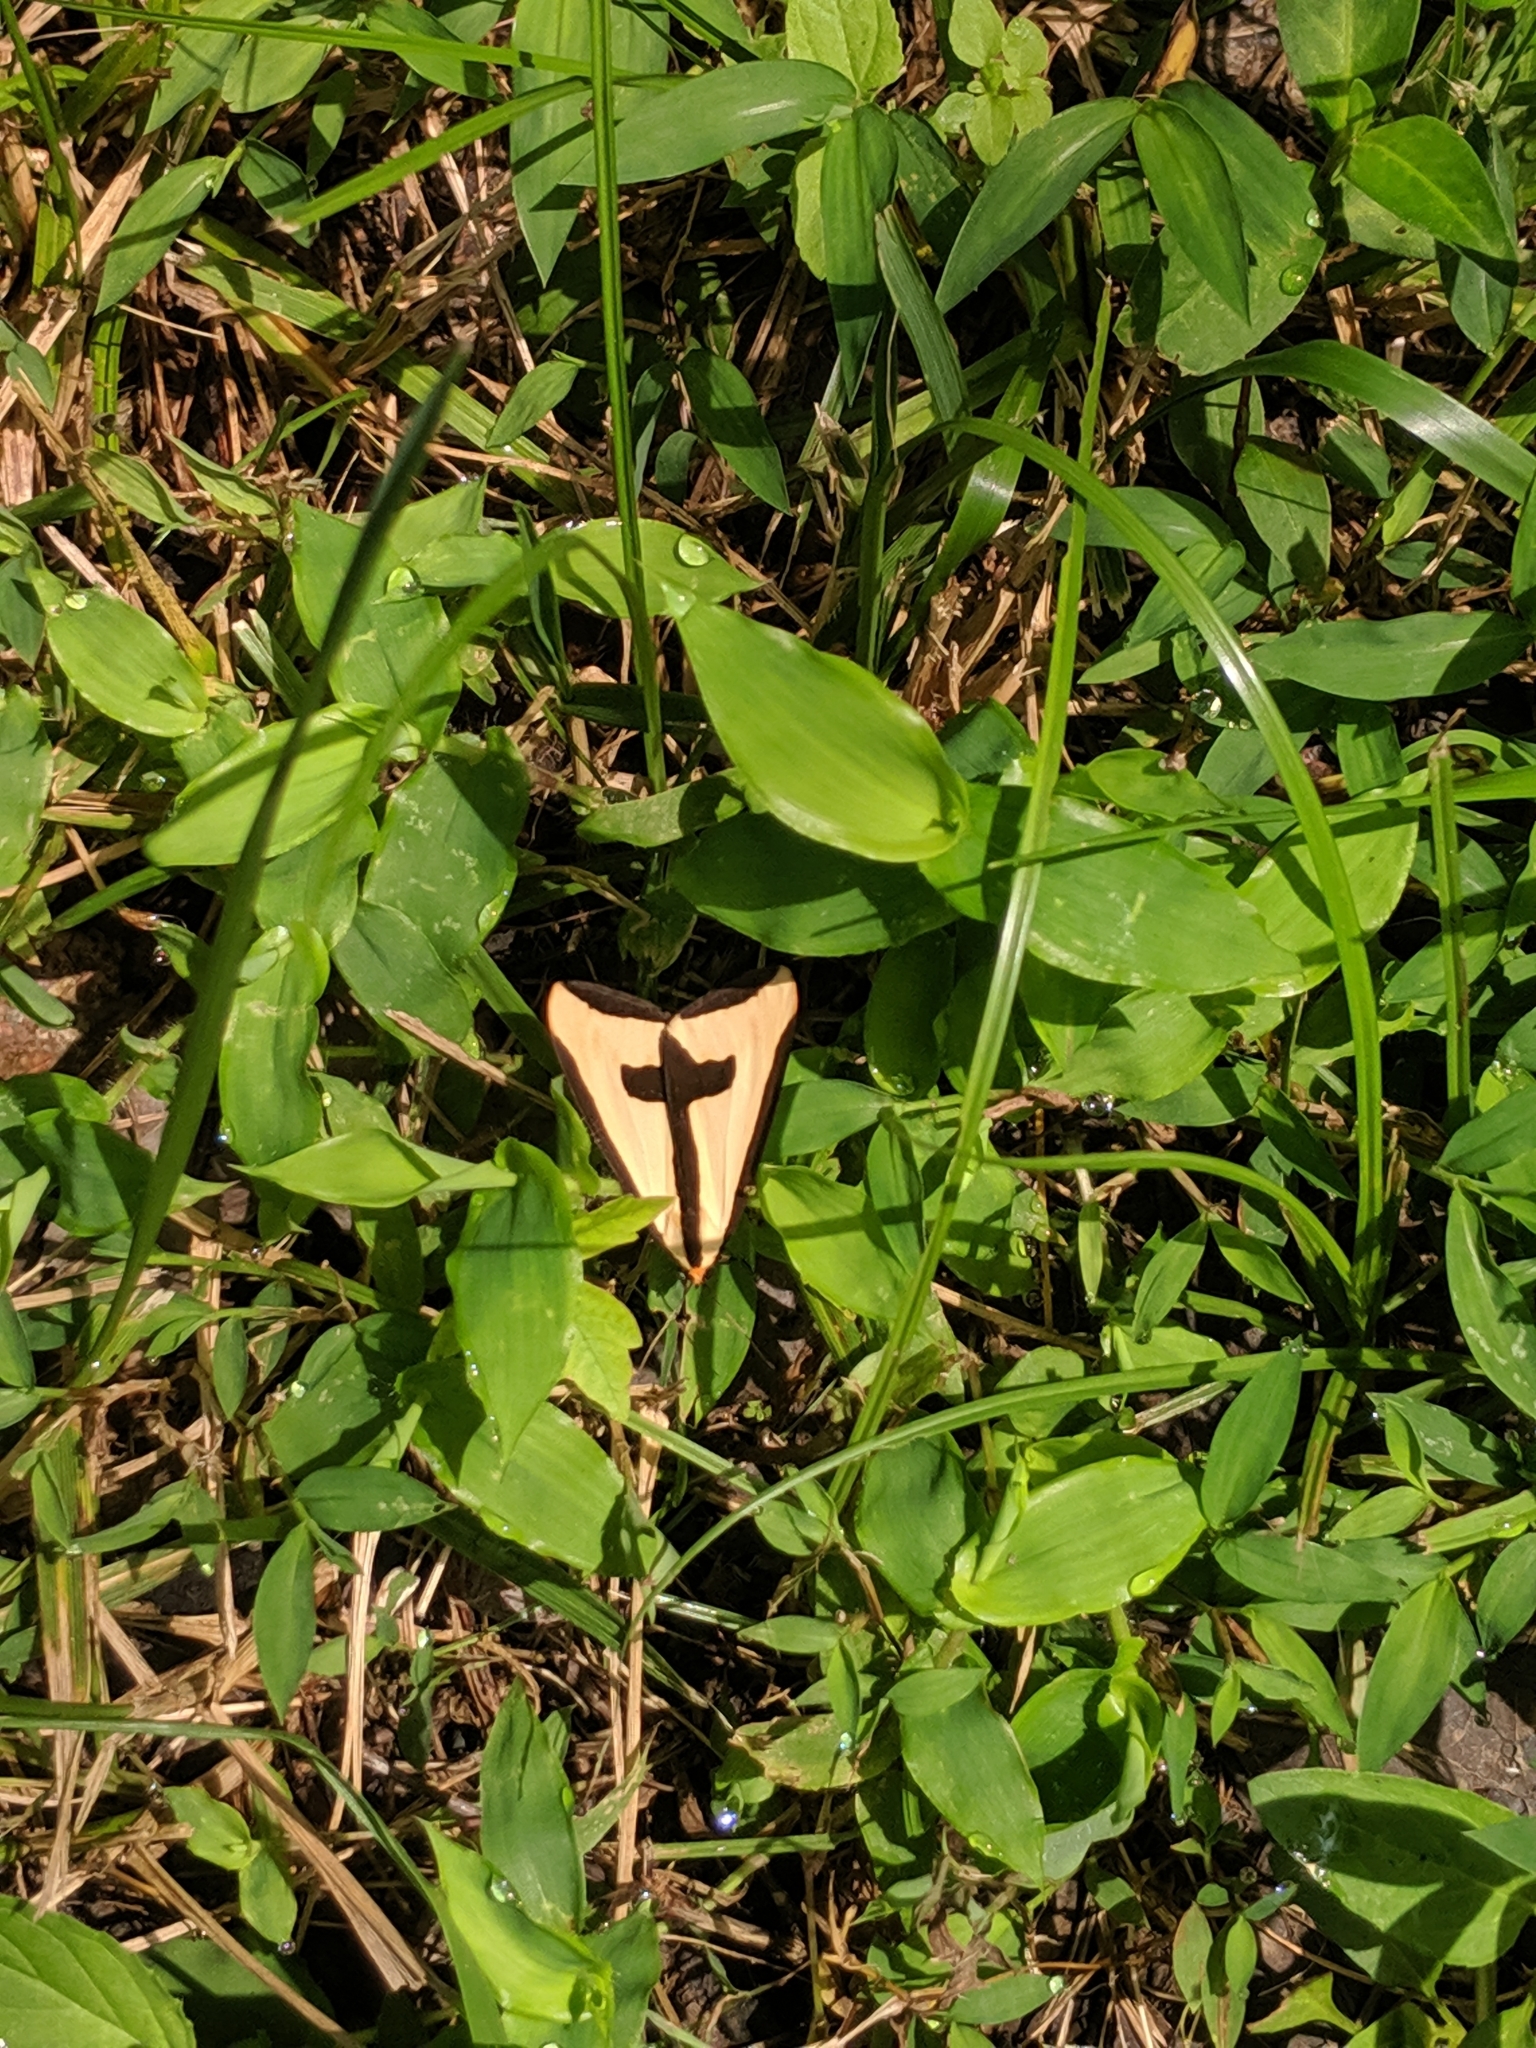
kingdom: Animalia
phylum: Arthropoda
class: Insecta
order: Lepidoptera
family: Erebidae
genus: Haploa
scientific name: Haploa clymene
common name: Clymene moth
